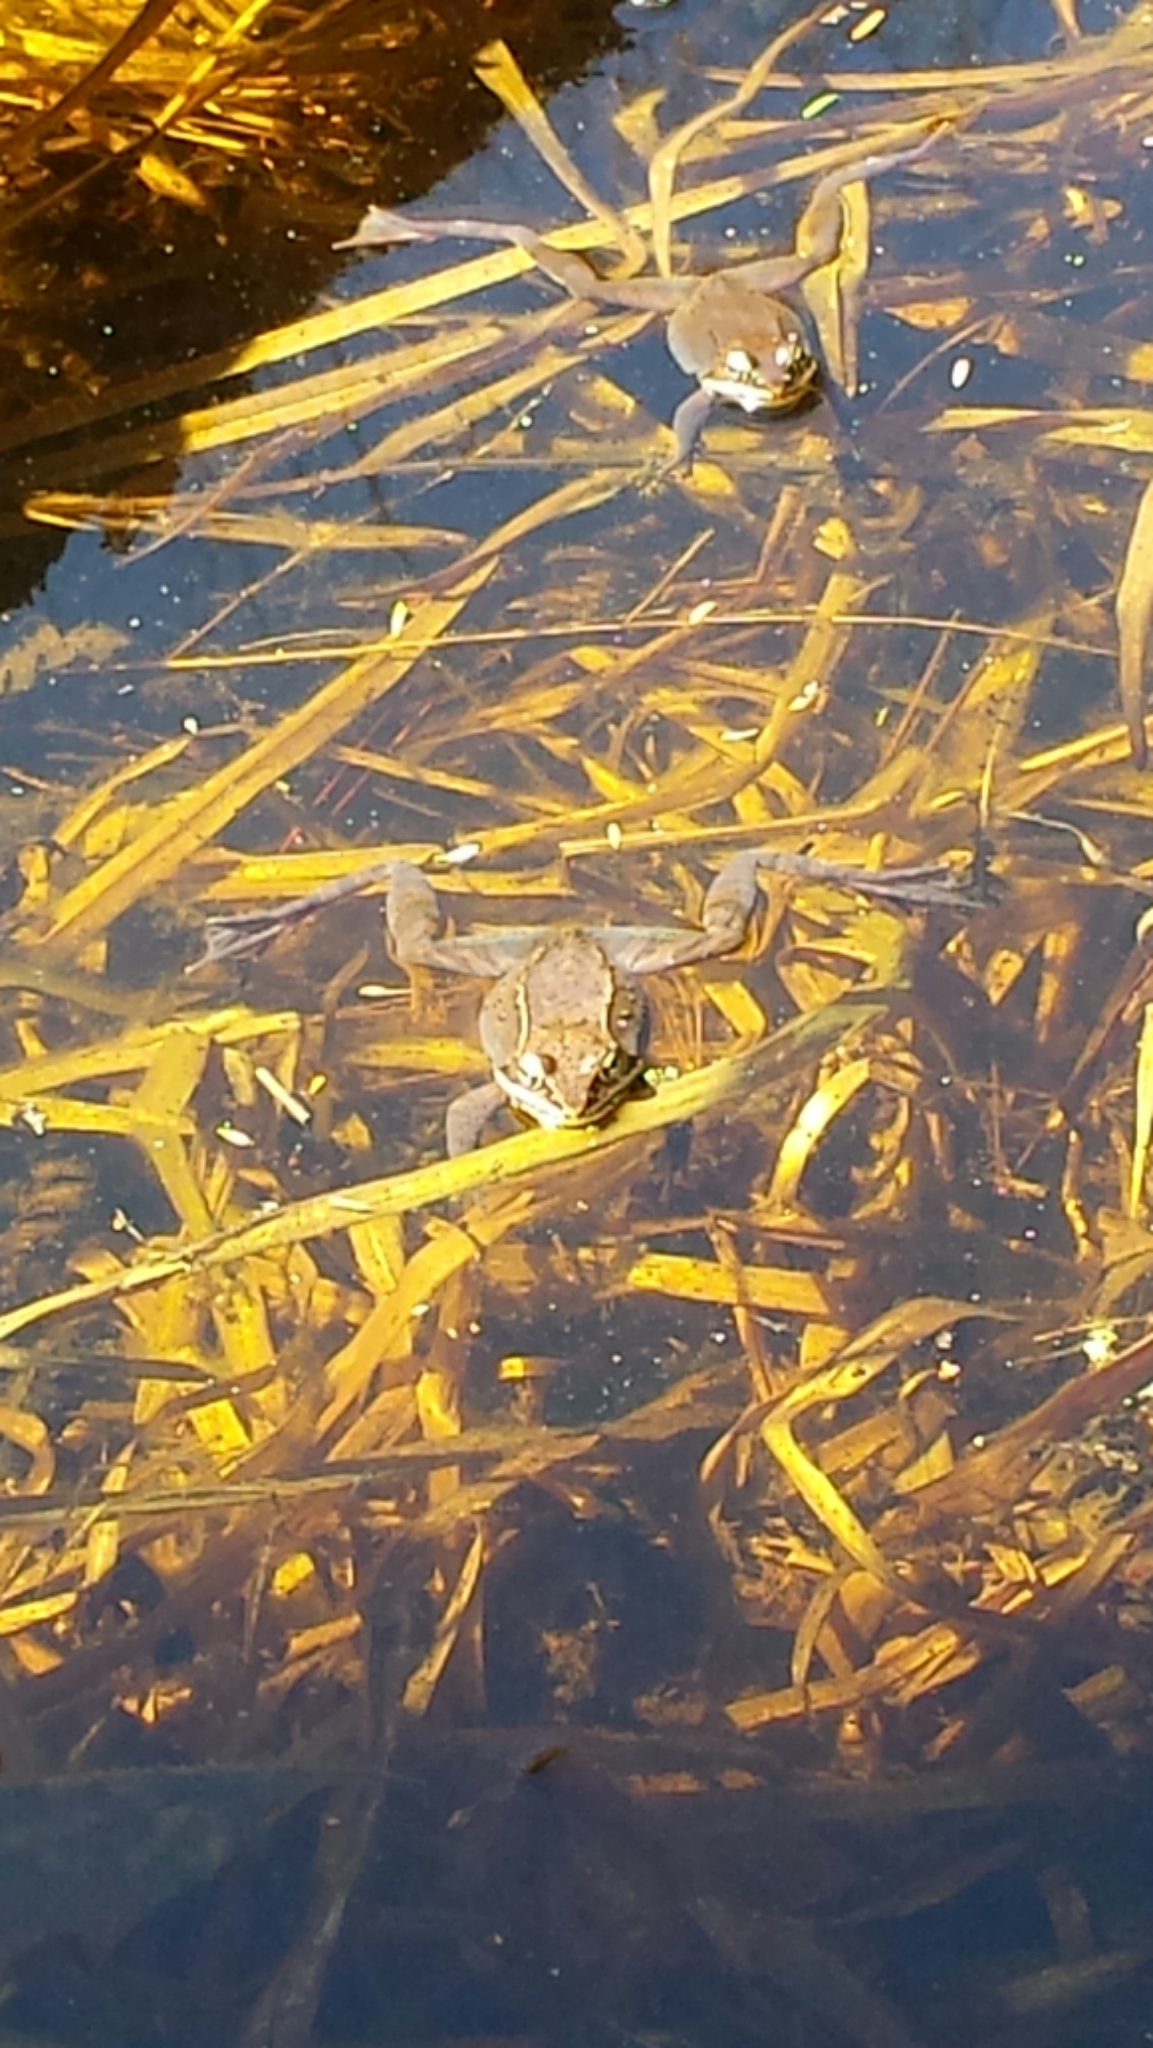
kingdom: Animalia
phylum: Chordata
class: Amphibia
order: Anura
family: Ranidae
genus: Lithobates
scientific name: Lithobates sylvaticus
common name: Wood frog
